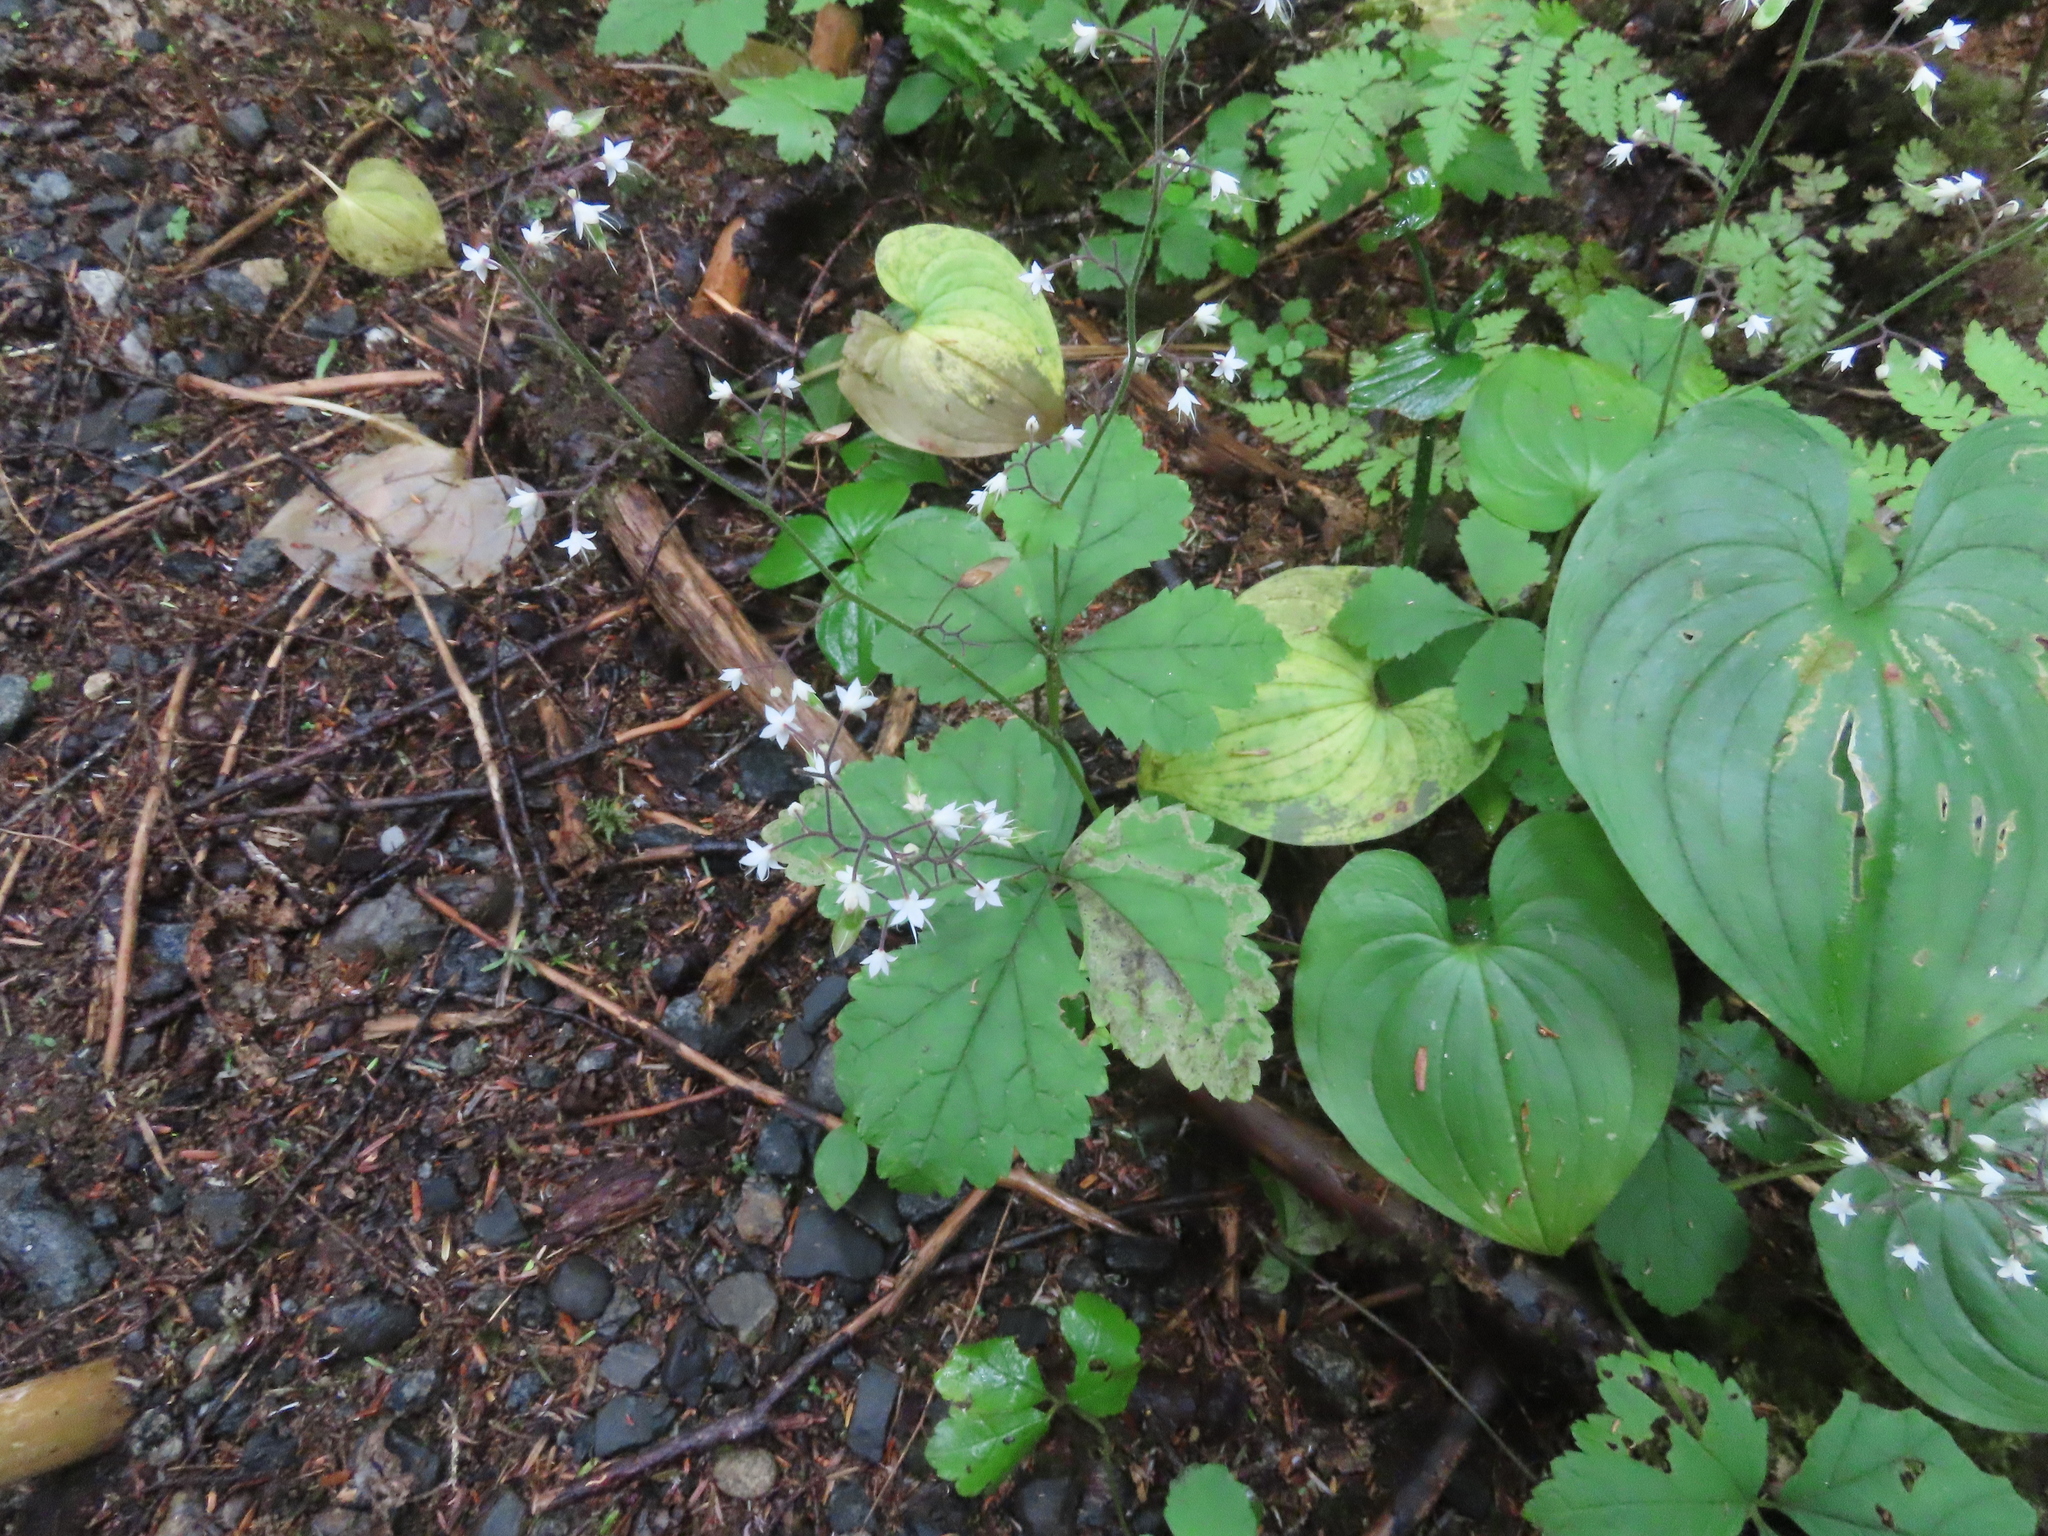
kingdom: Plantae
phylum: Tracheophyta
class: Magnoliopsida
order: Saxifragales
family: Saxifragaceae
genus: Tiarella
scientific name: Tiarella trifoliata
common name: Sugar-scoop
